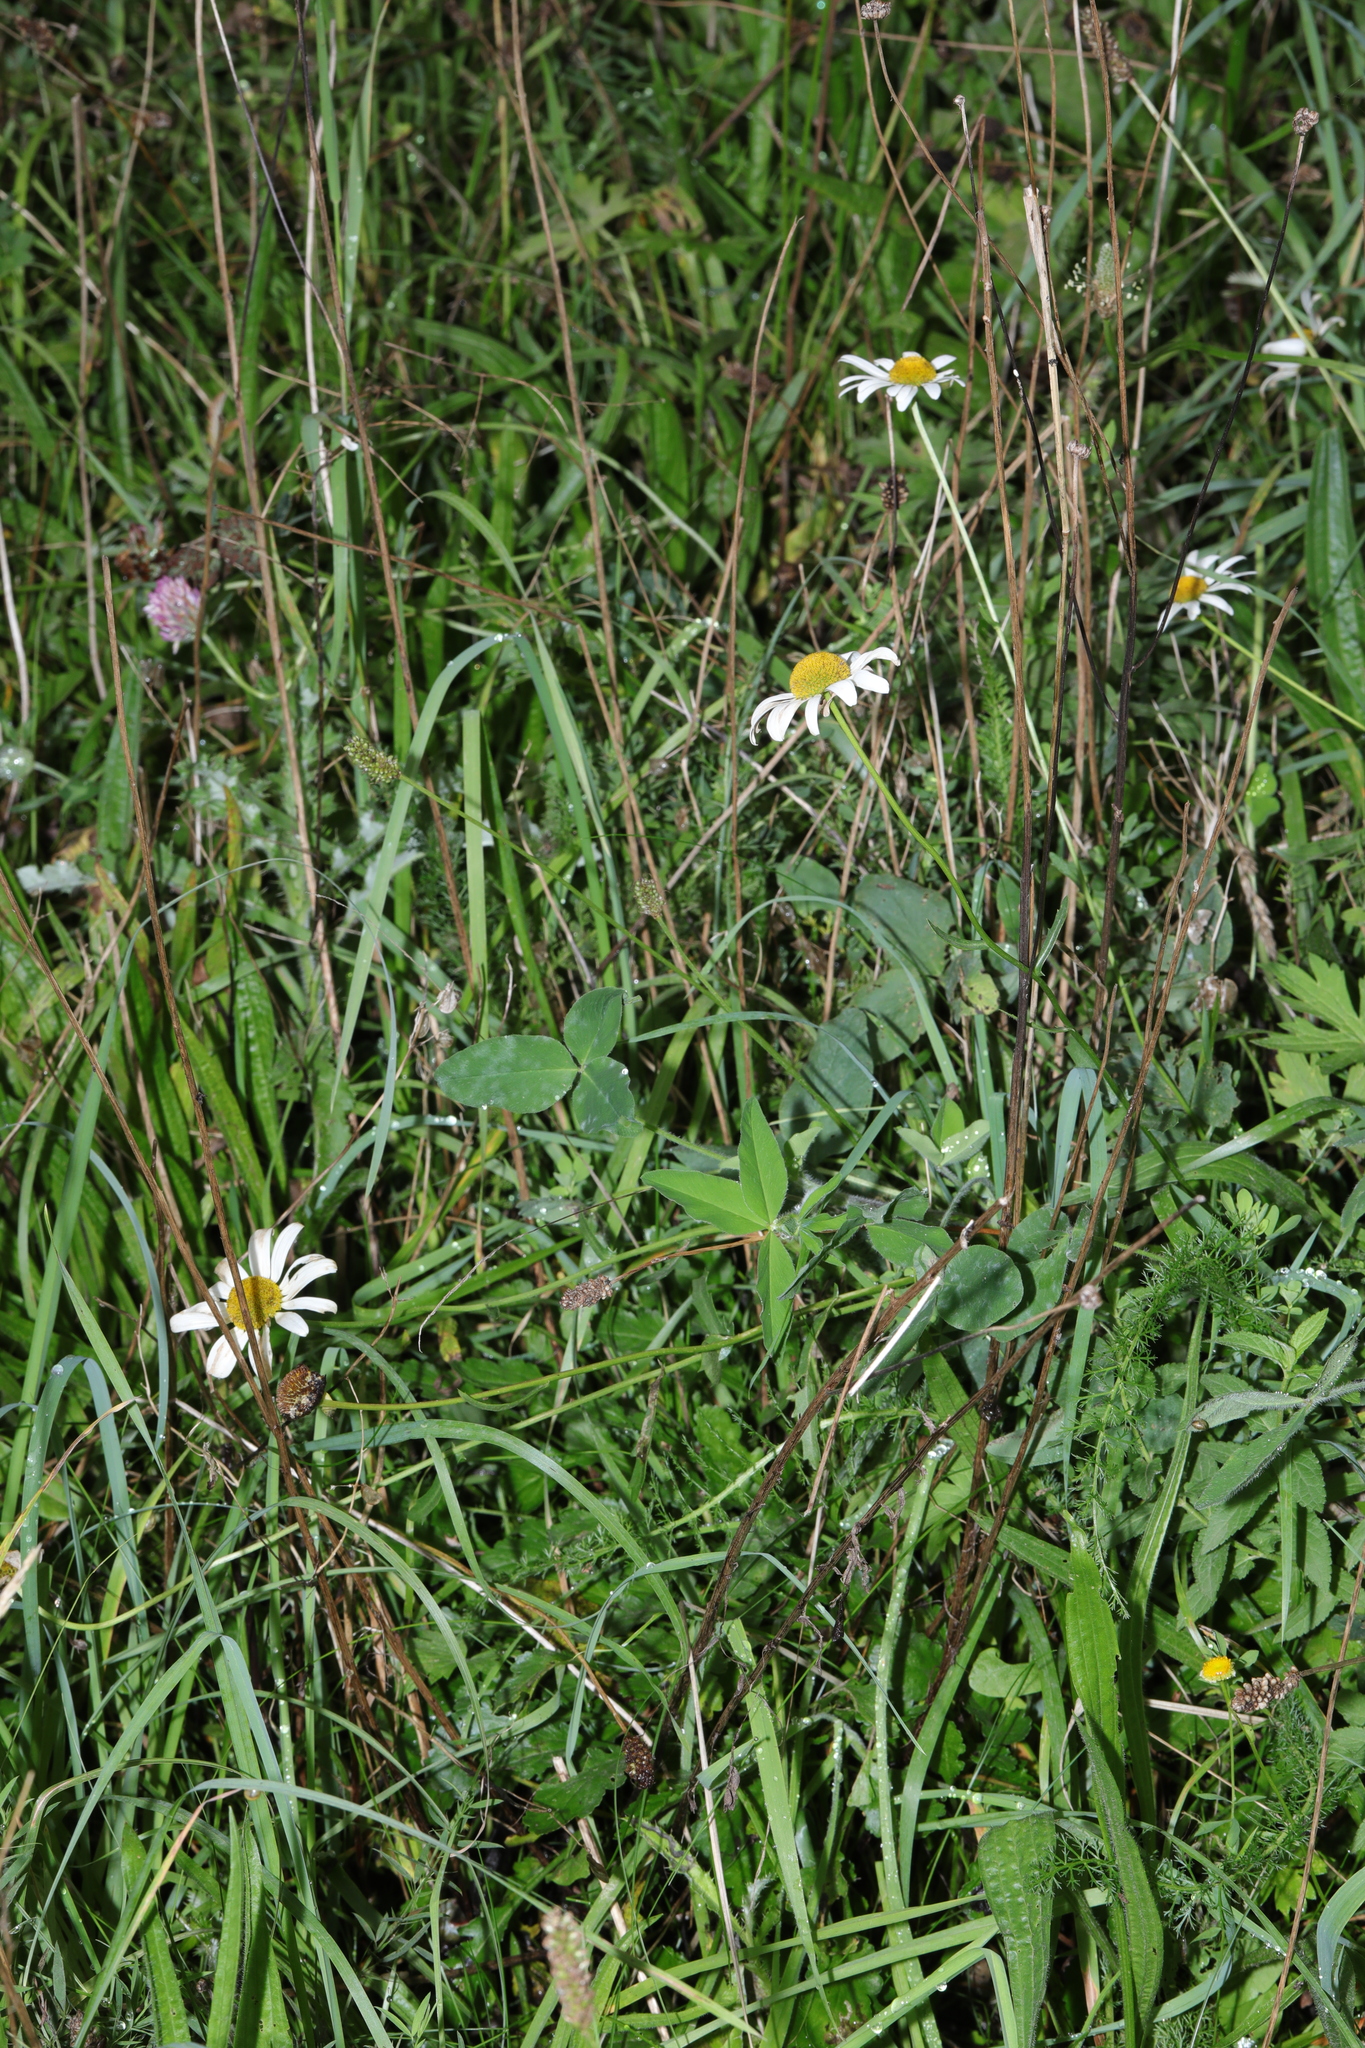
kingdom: Plantae
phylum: Tracheophyta
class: Magnoliopsida
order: Asterales
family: Asteraceae
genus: Leucanthemum
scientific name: Leucanthemum vulgare
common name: Oxeye daisy
